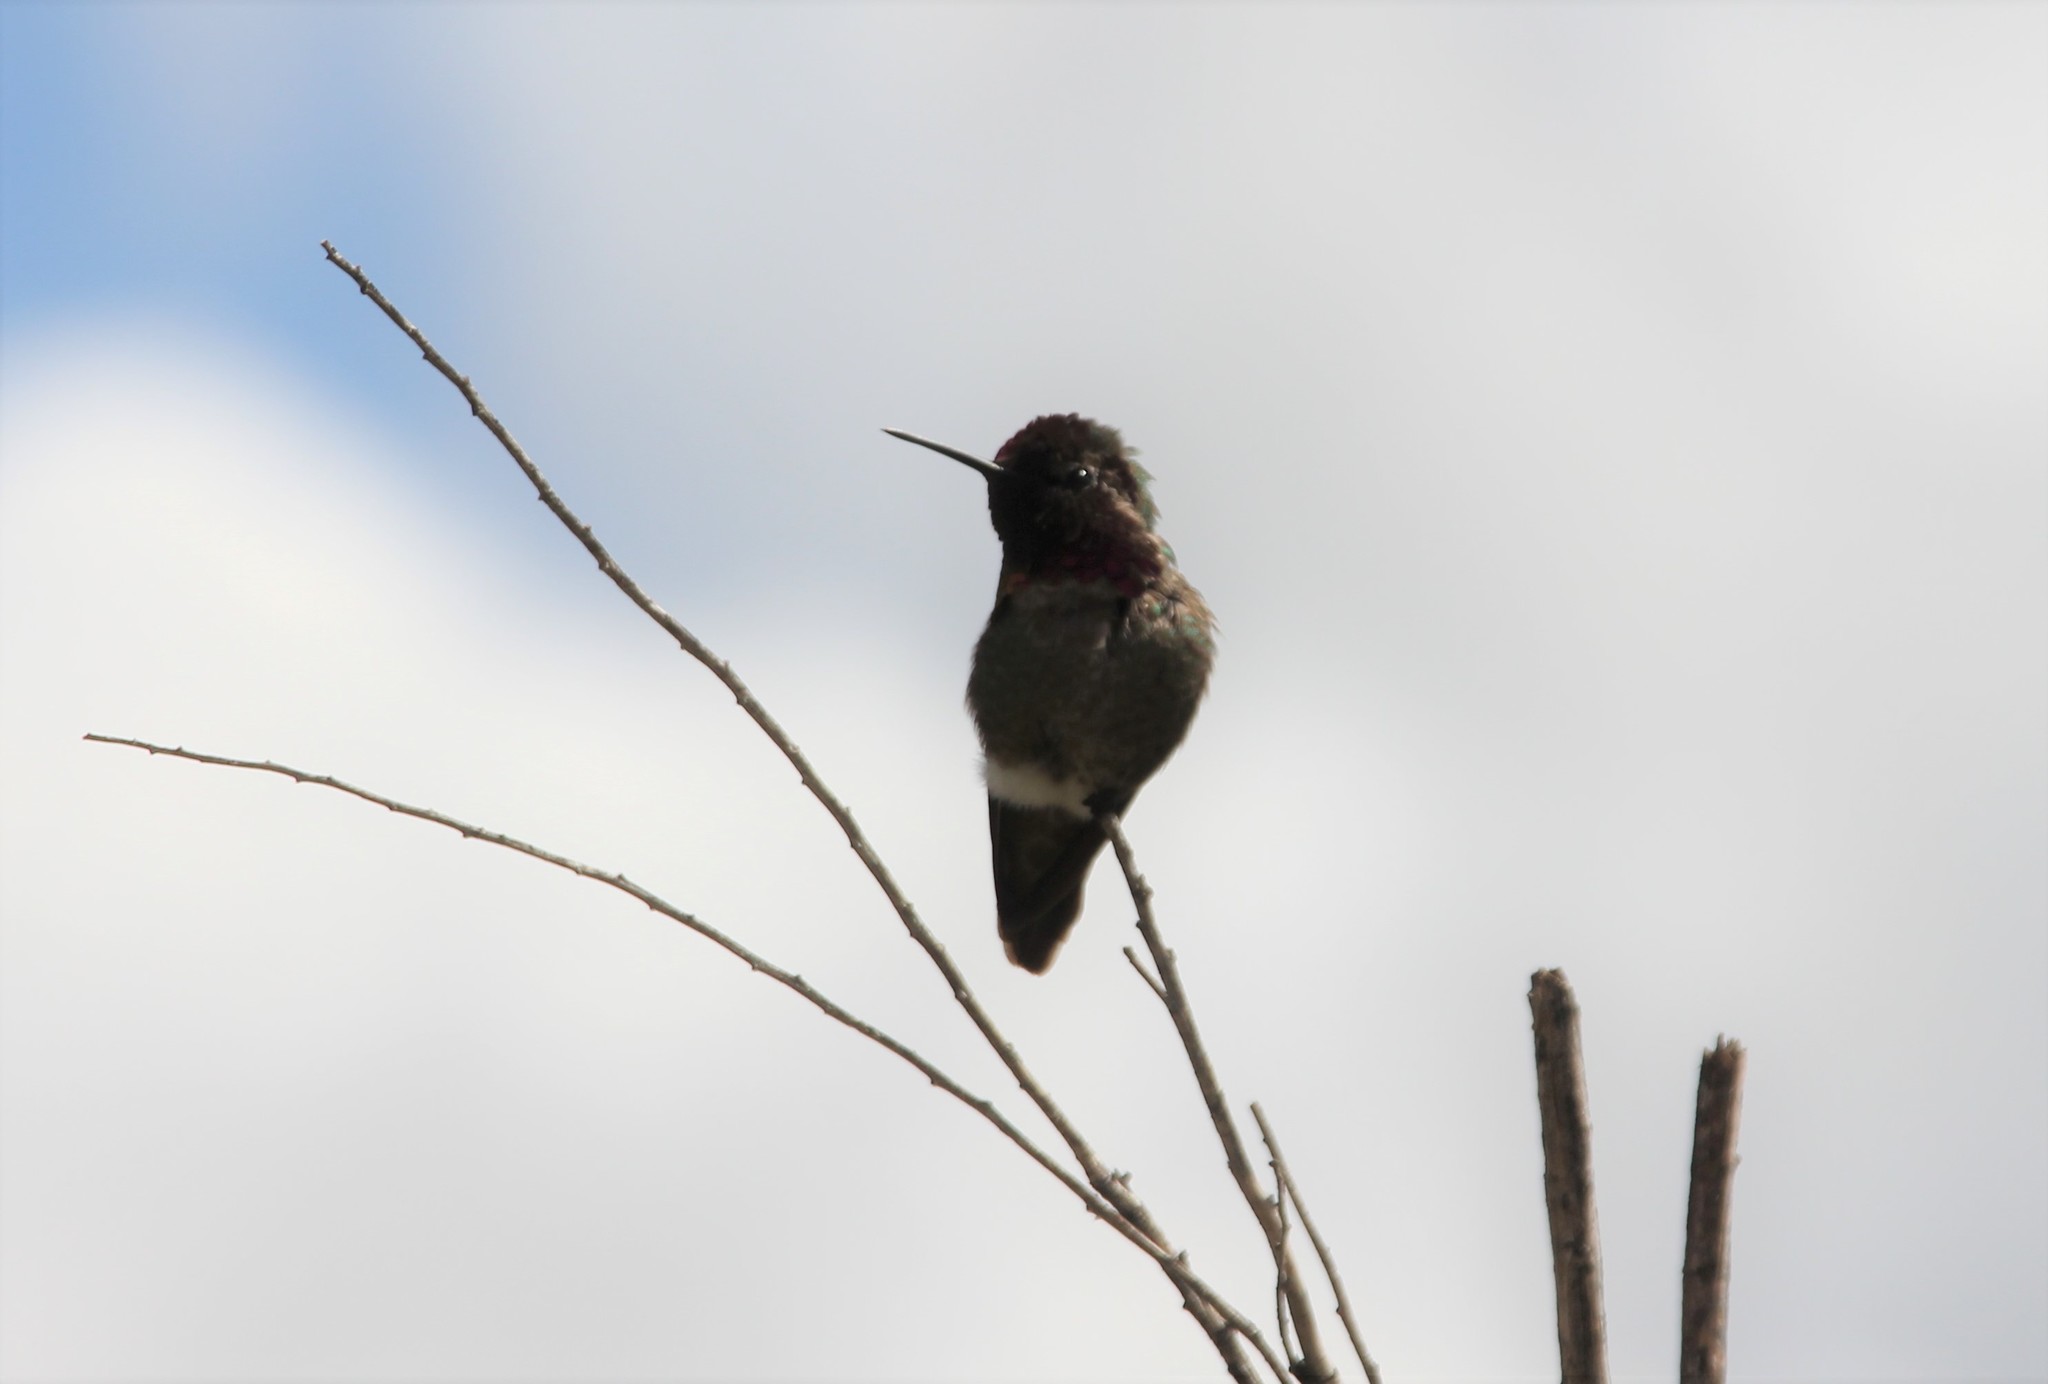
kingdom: Animalia
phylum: Chordata
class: Aves
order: Apodiformes
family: Trochilidae
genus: Calypte
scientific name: Calypte anna
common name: Anna's hummingbird
